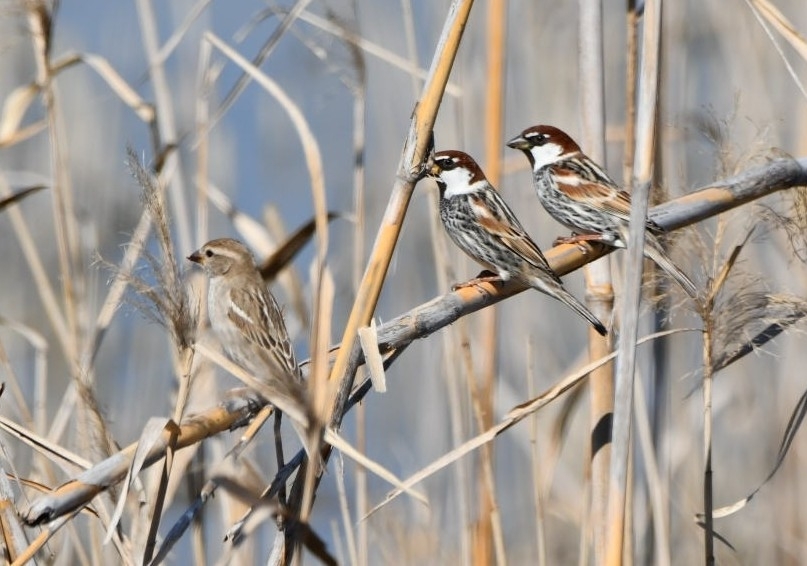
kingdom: Animalia
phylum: Chordata
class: Aves
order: Passeriformes
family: Passeridae
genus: Passer
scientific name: Passer hispaniolensis
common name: Spanish sparrow
